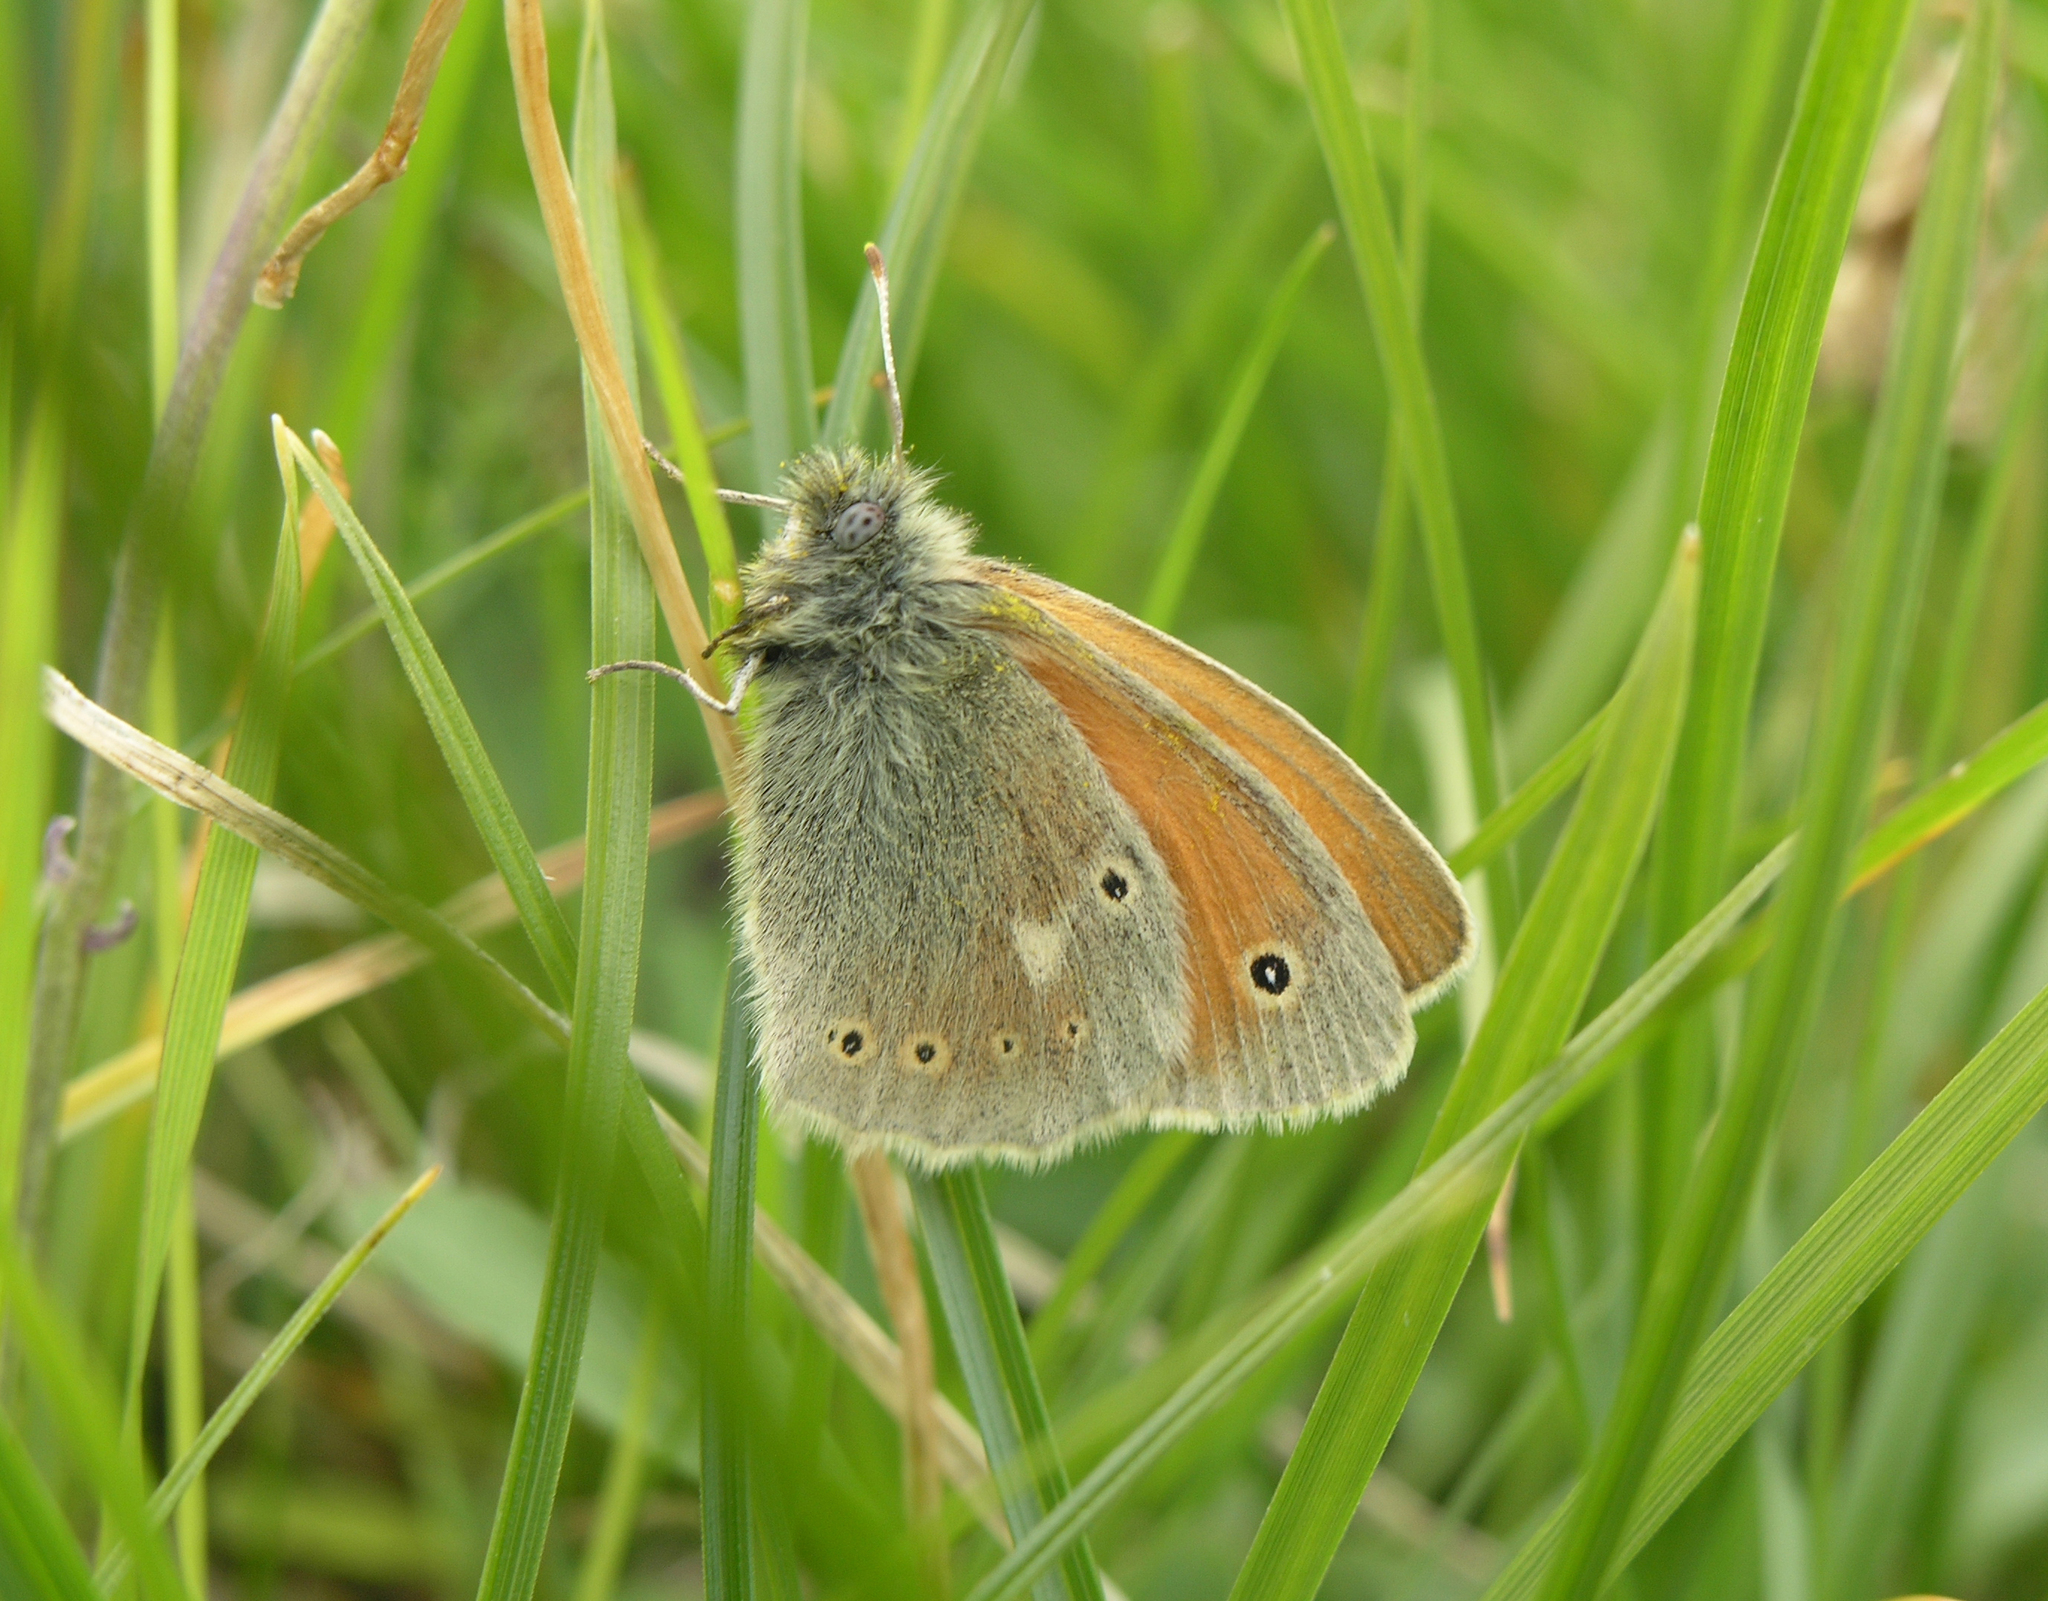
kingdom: Animalia
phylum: Arthropoda
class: Insecta
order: Lepidoptera
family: Nymphalidae
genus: Coenonympha
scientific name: Coenonympha tullia
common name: Large heath
